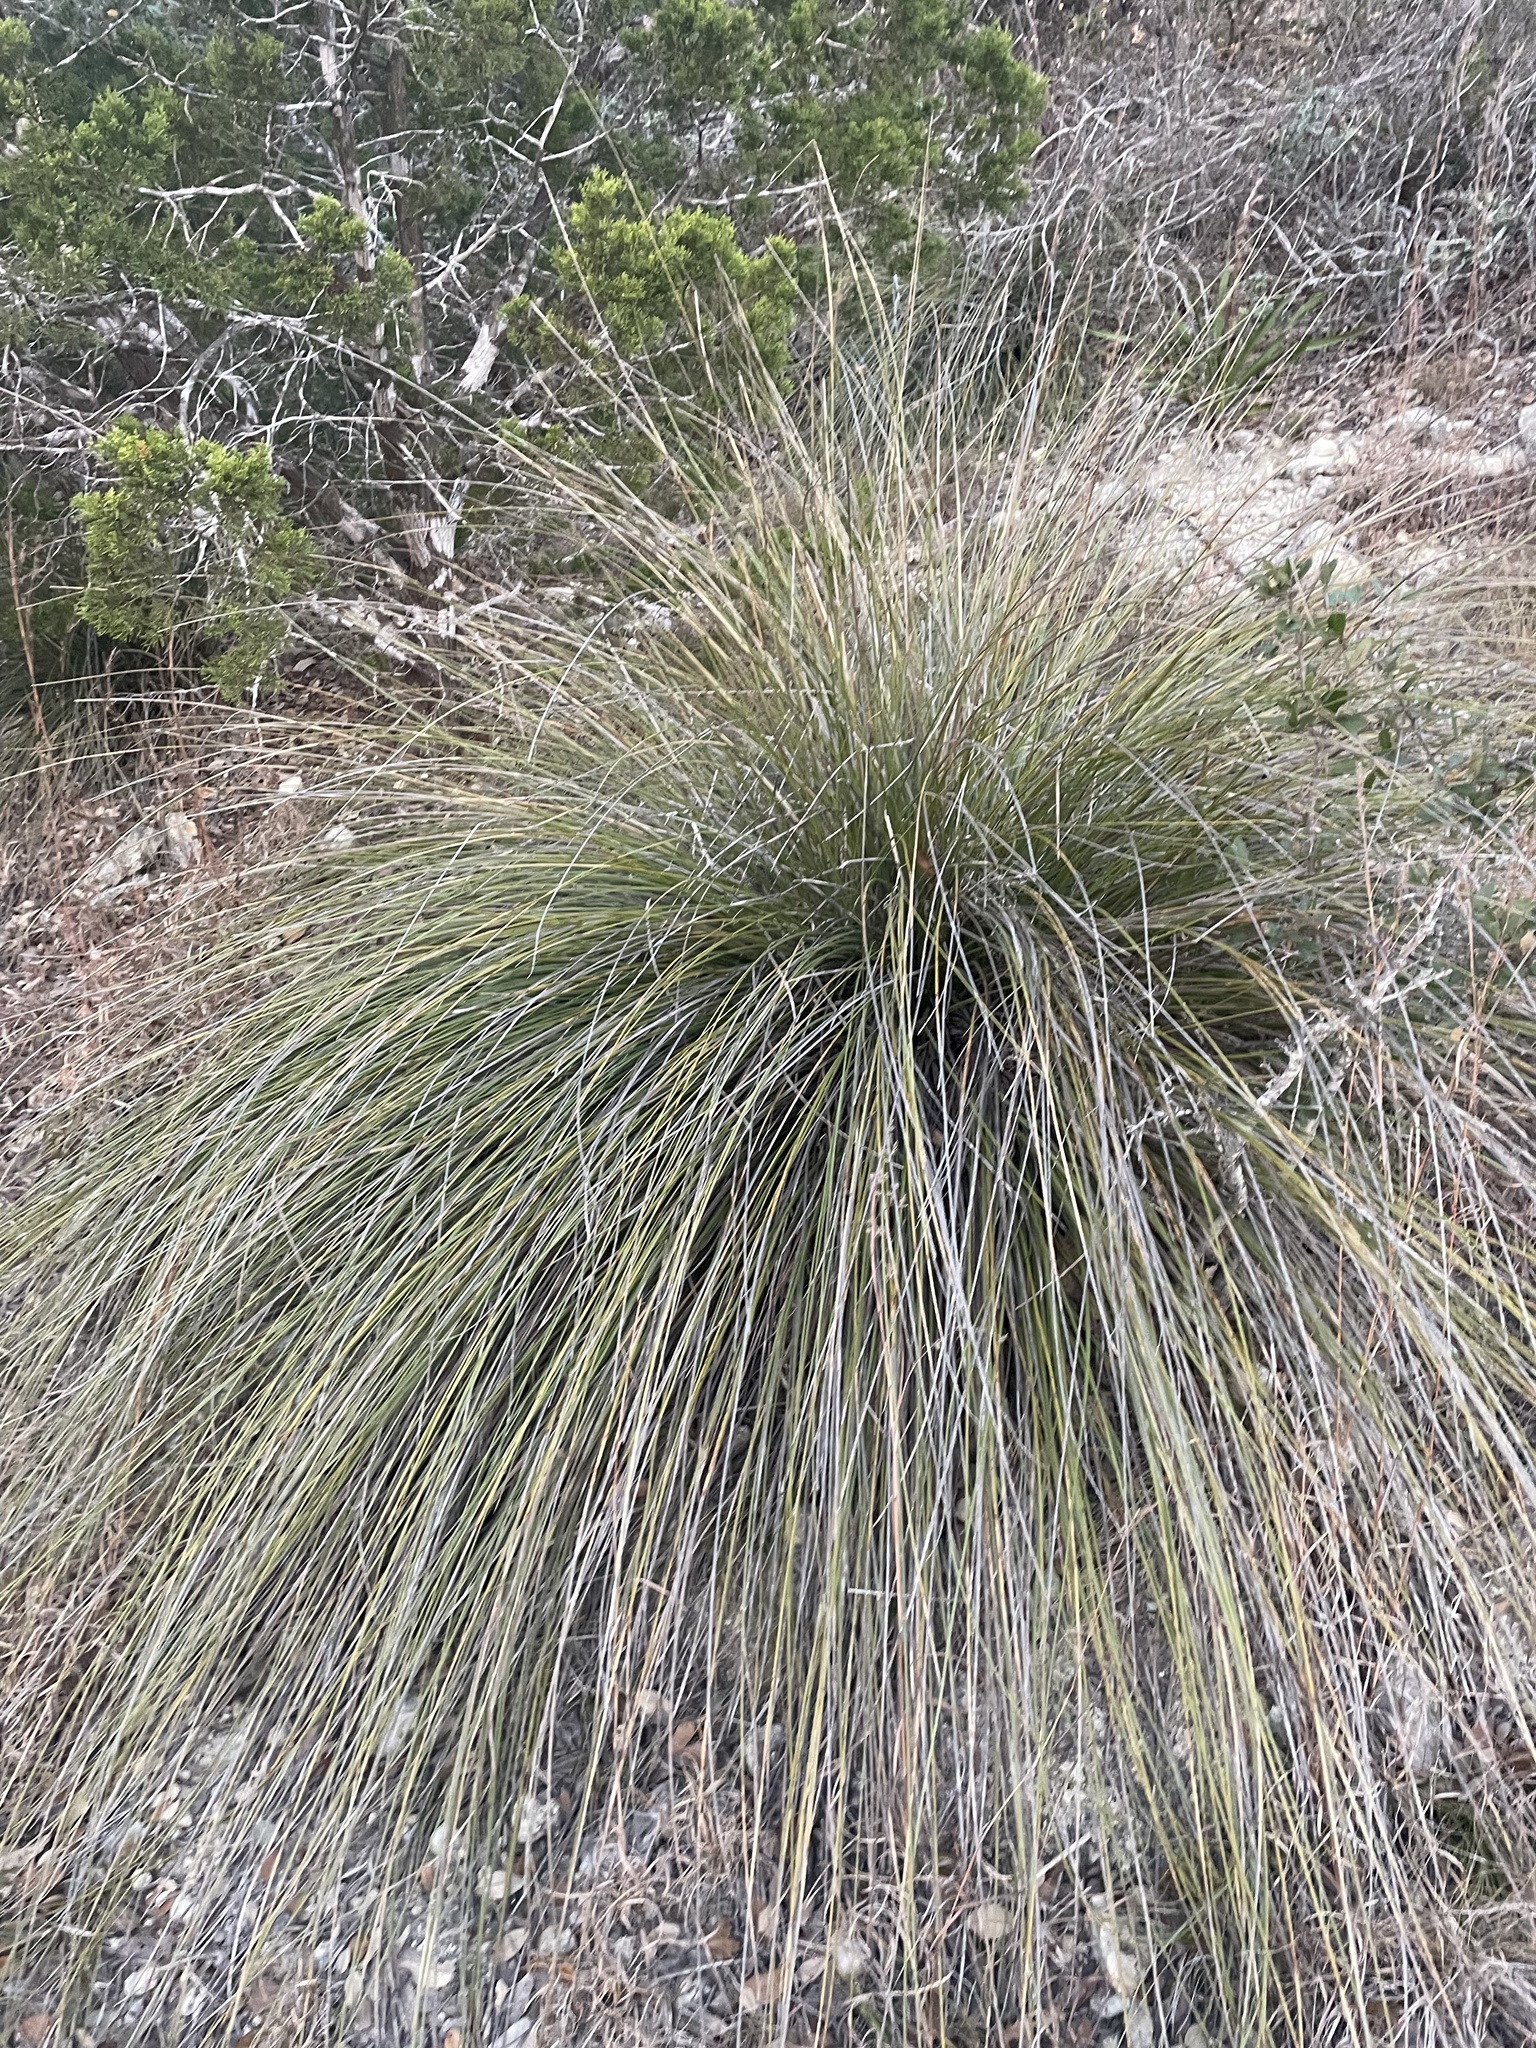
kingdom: Plantae
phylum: Tracheophyta
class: Liliopsida
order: Asparagales
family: Asparagaceae
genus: Nolina
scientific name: Nolina texana
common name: Texas sacahuiste
